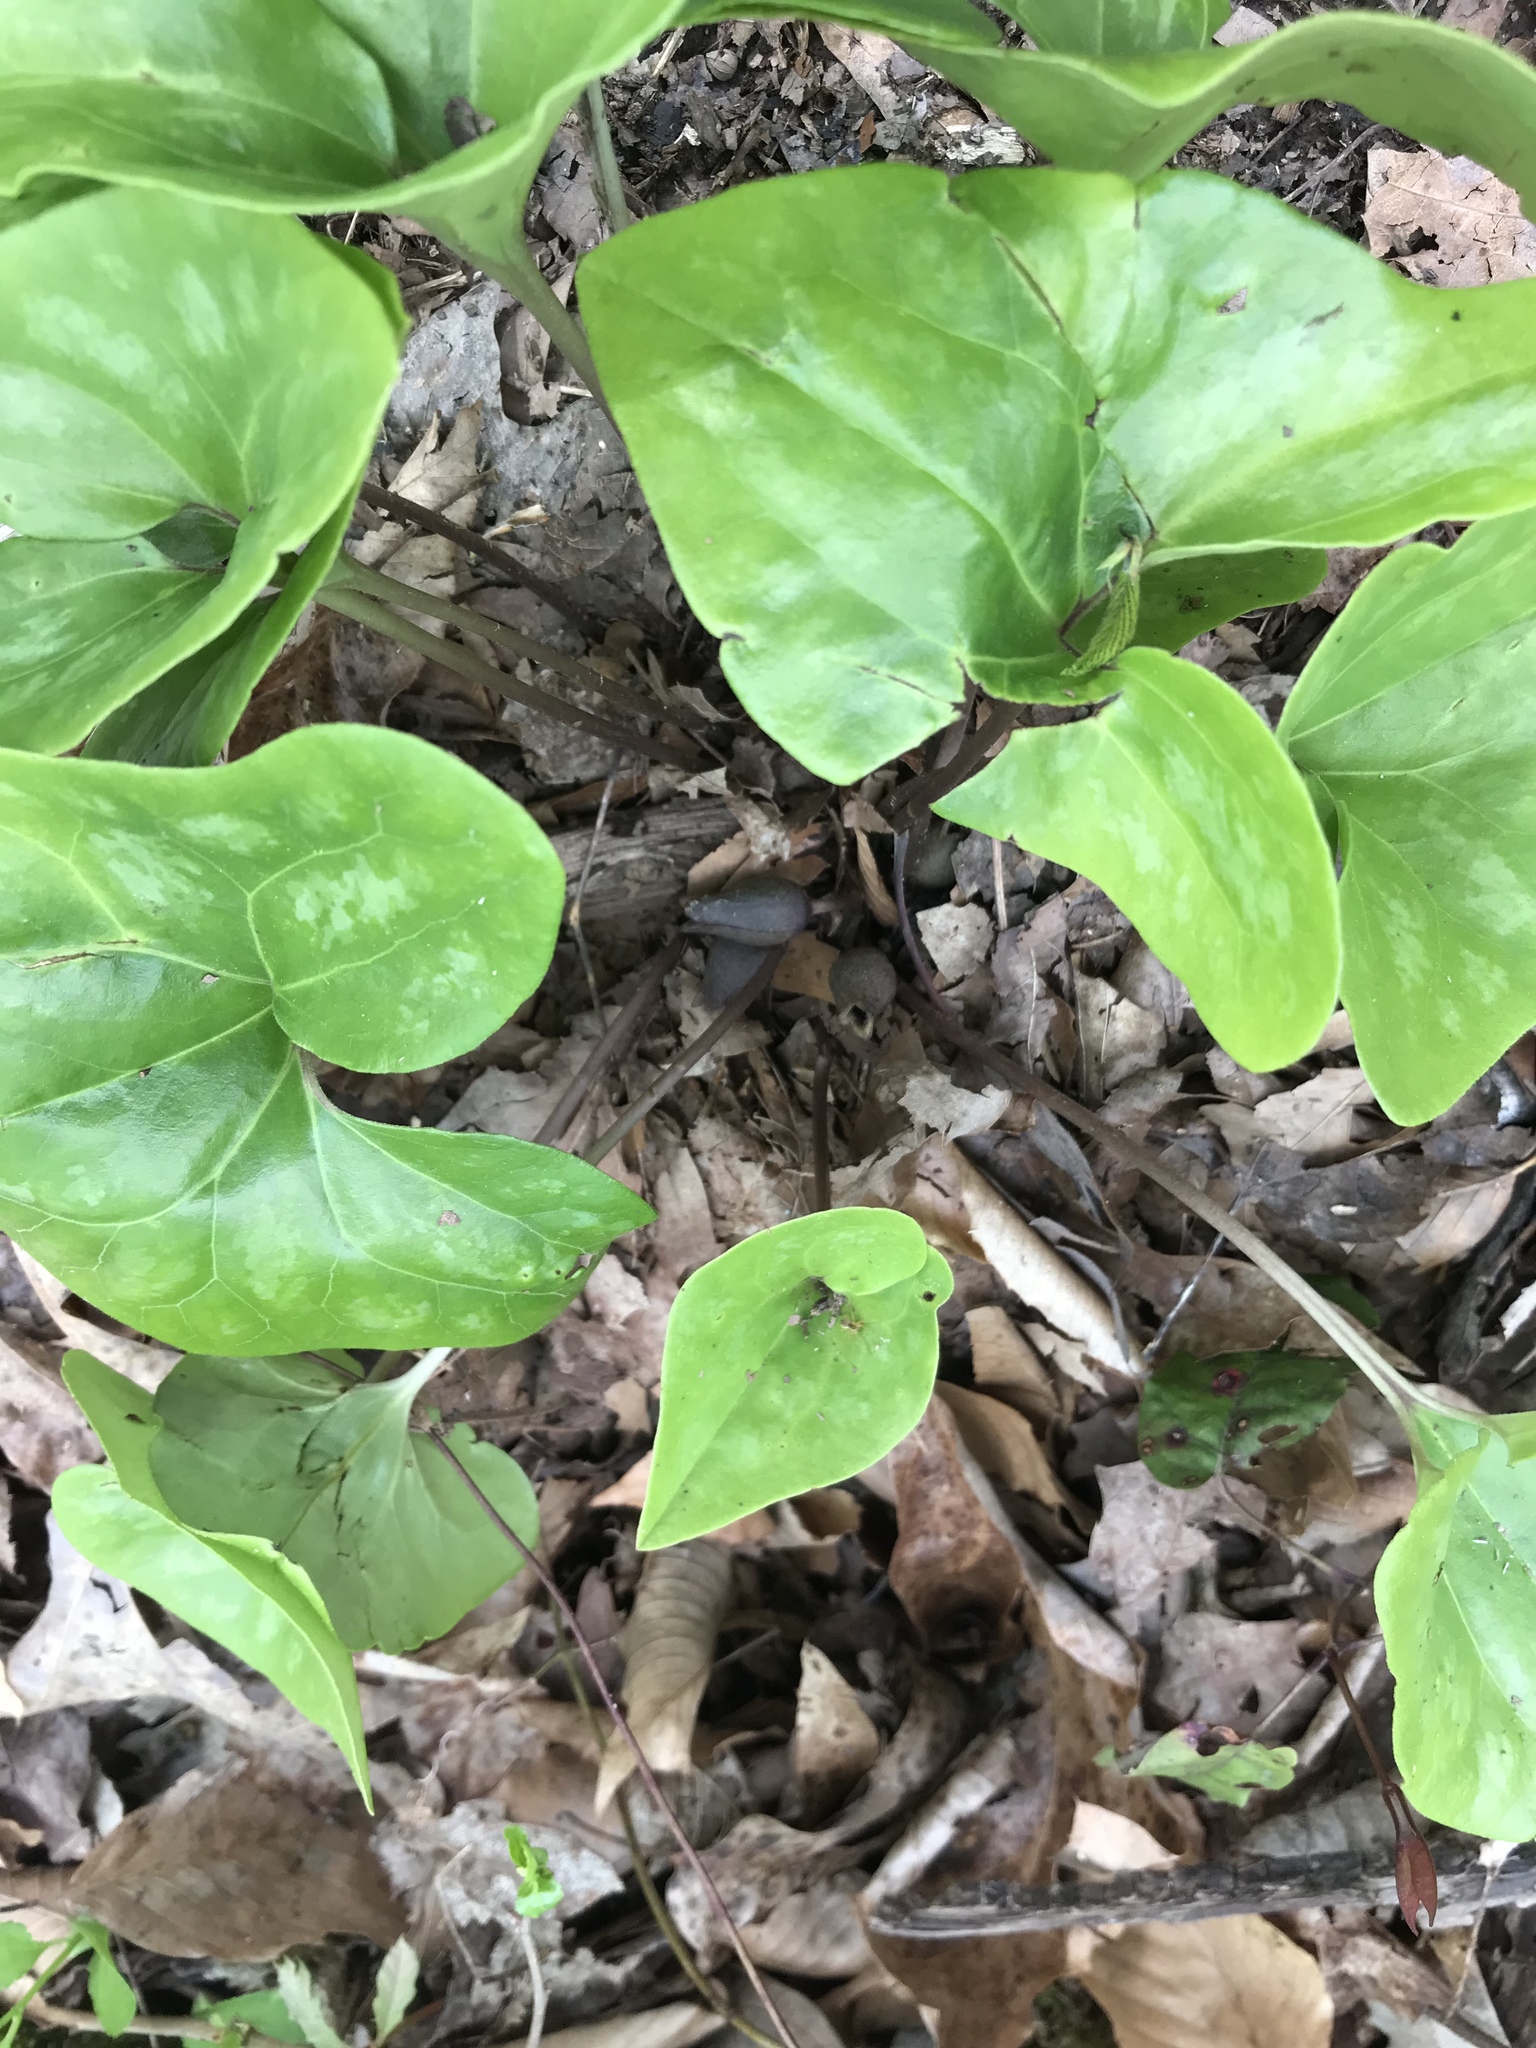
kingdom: Plantae
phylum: Tracheophyta
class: Magnoliopsida
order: Piperales
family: Aristolochiaceae
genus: Hexastylis
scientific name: Hexastylis arifolia
